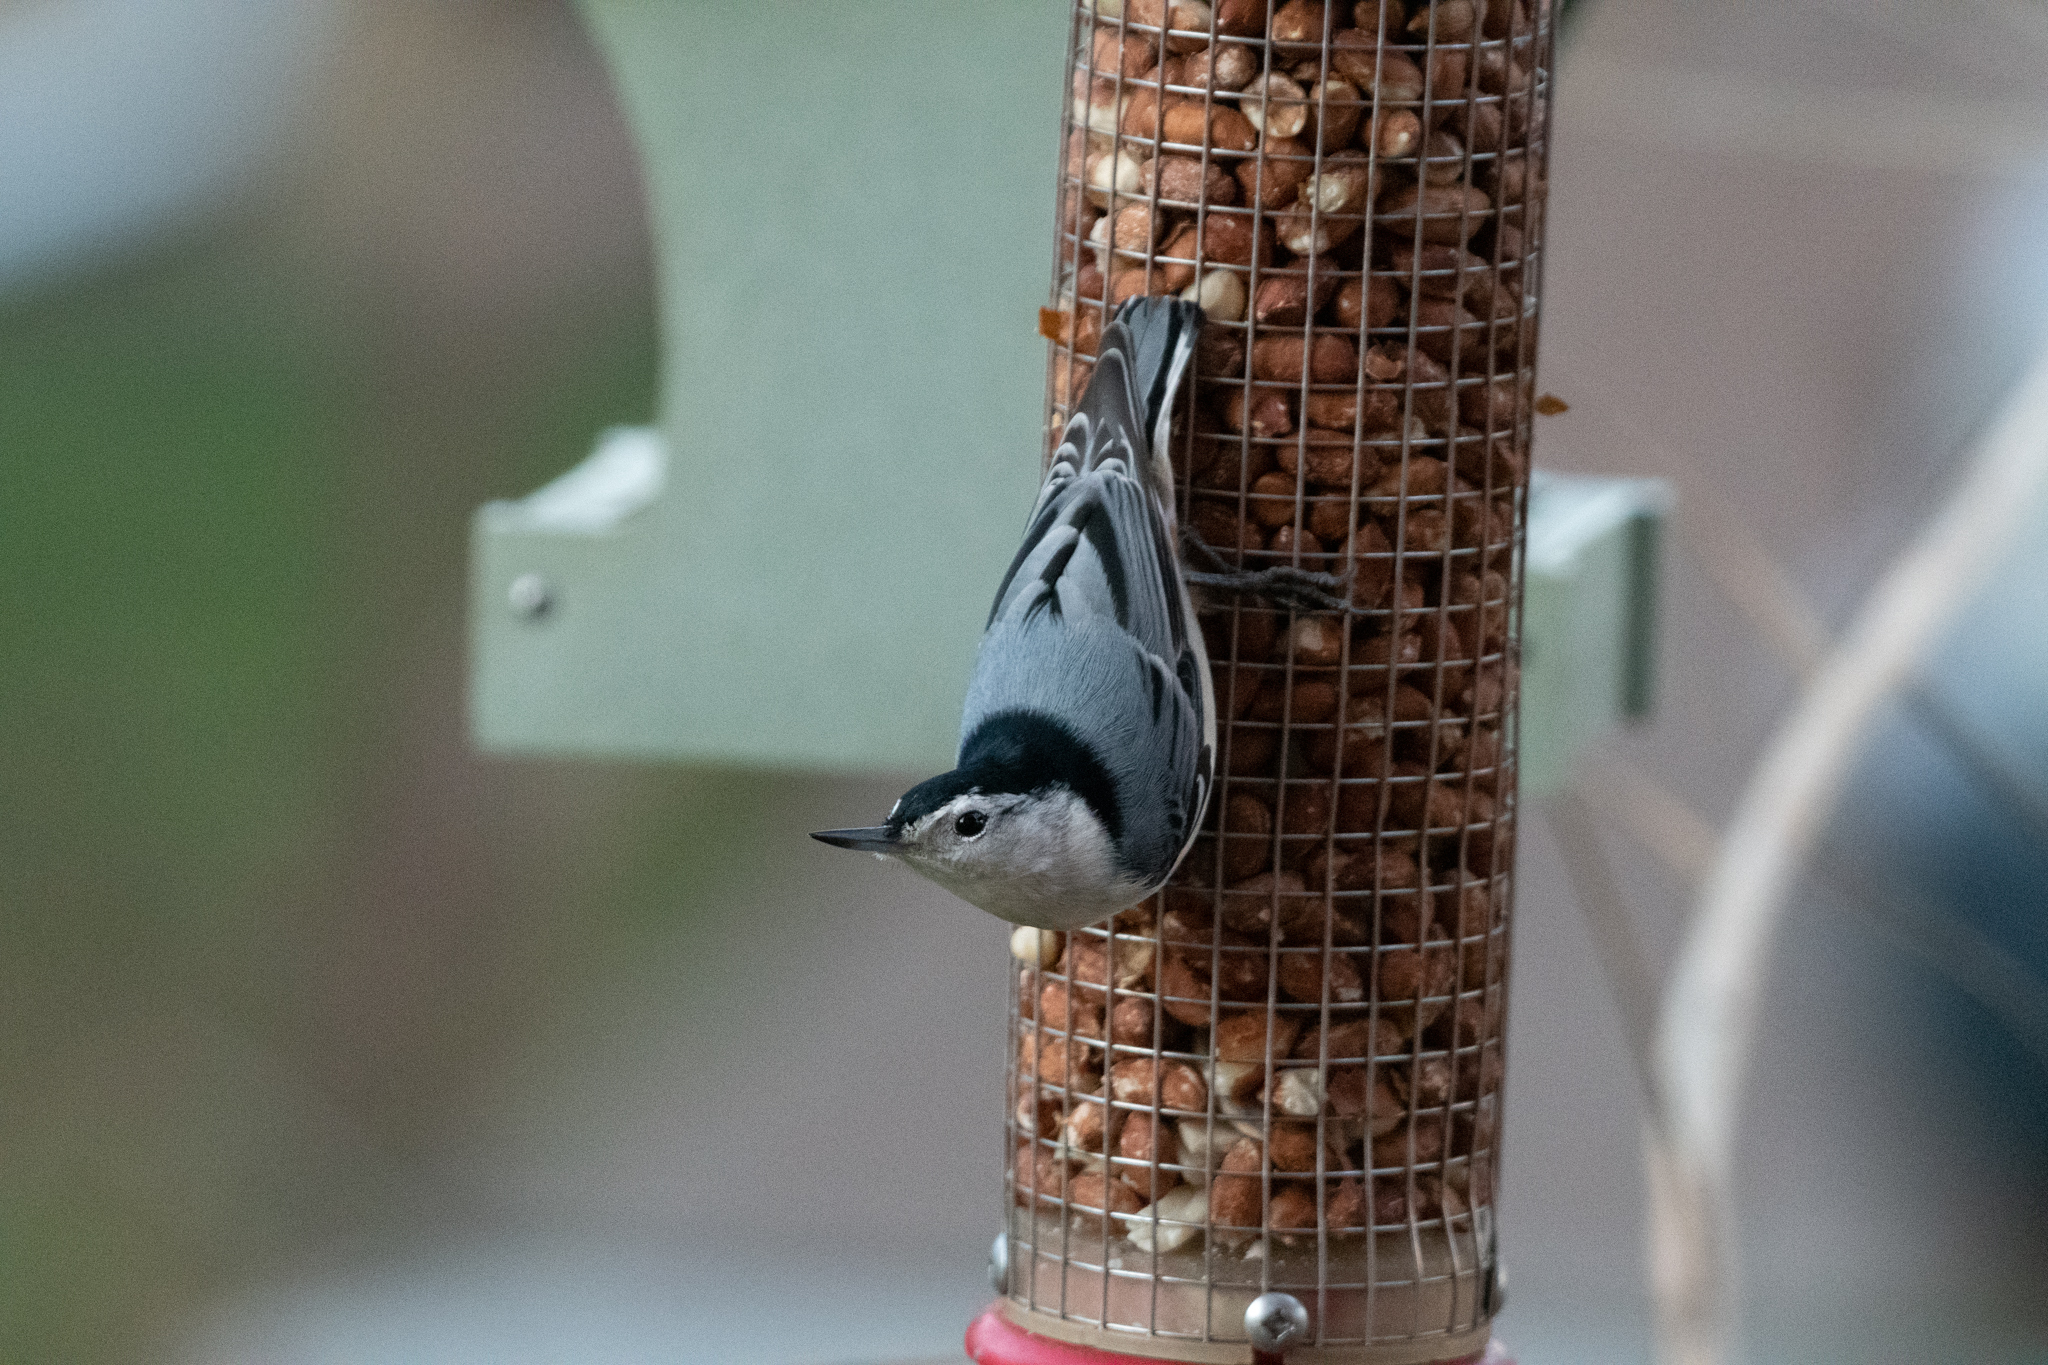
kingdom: Animalia
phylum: Chordata
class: Aves
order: Passeriformes
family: Sittidae
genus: Sitta
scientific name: Sitta carolinensis
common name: White-breasted nuthatch
